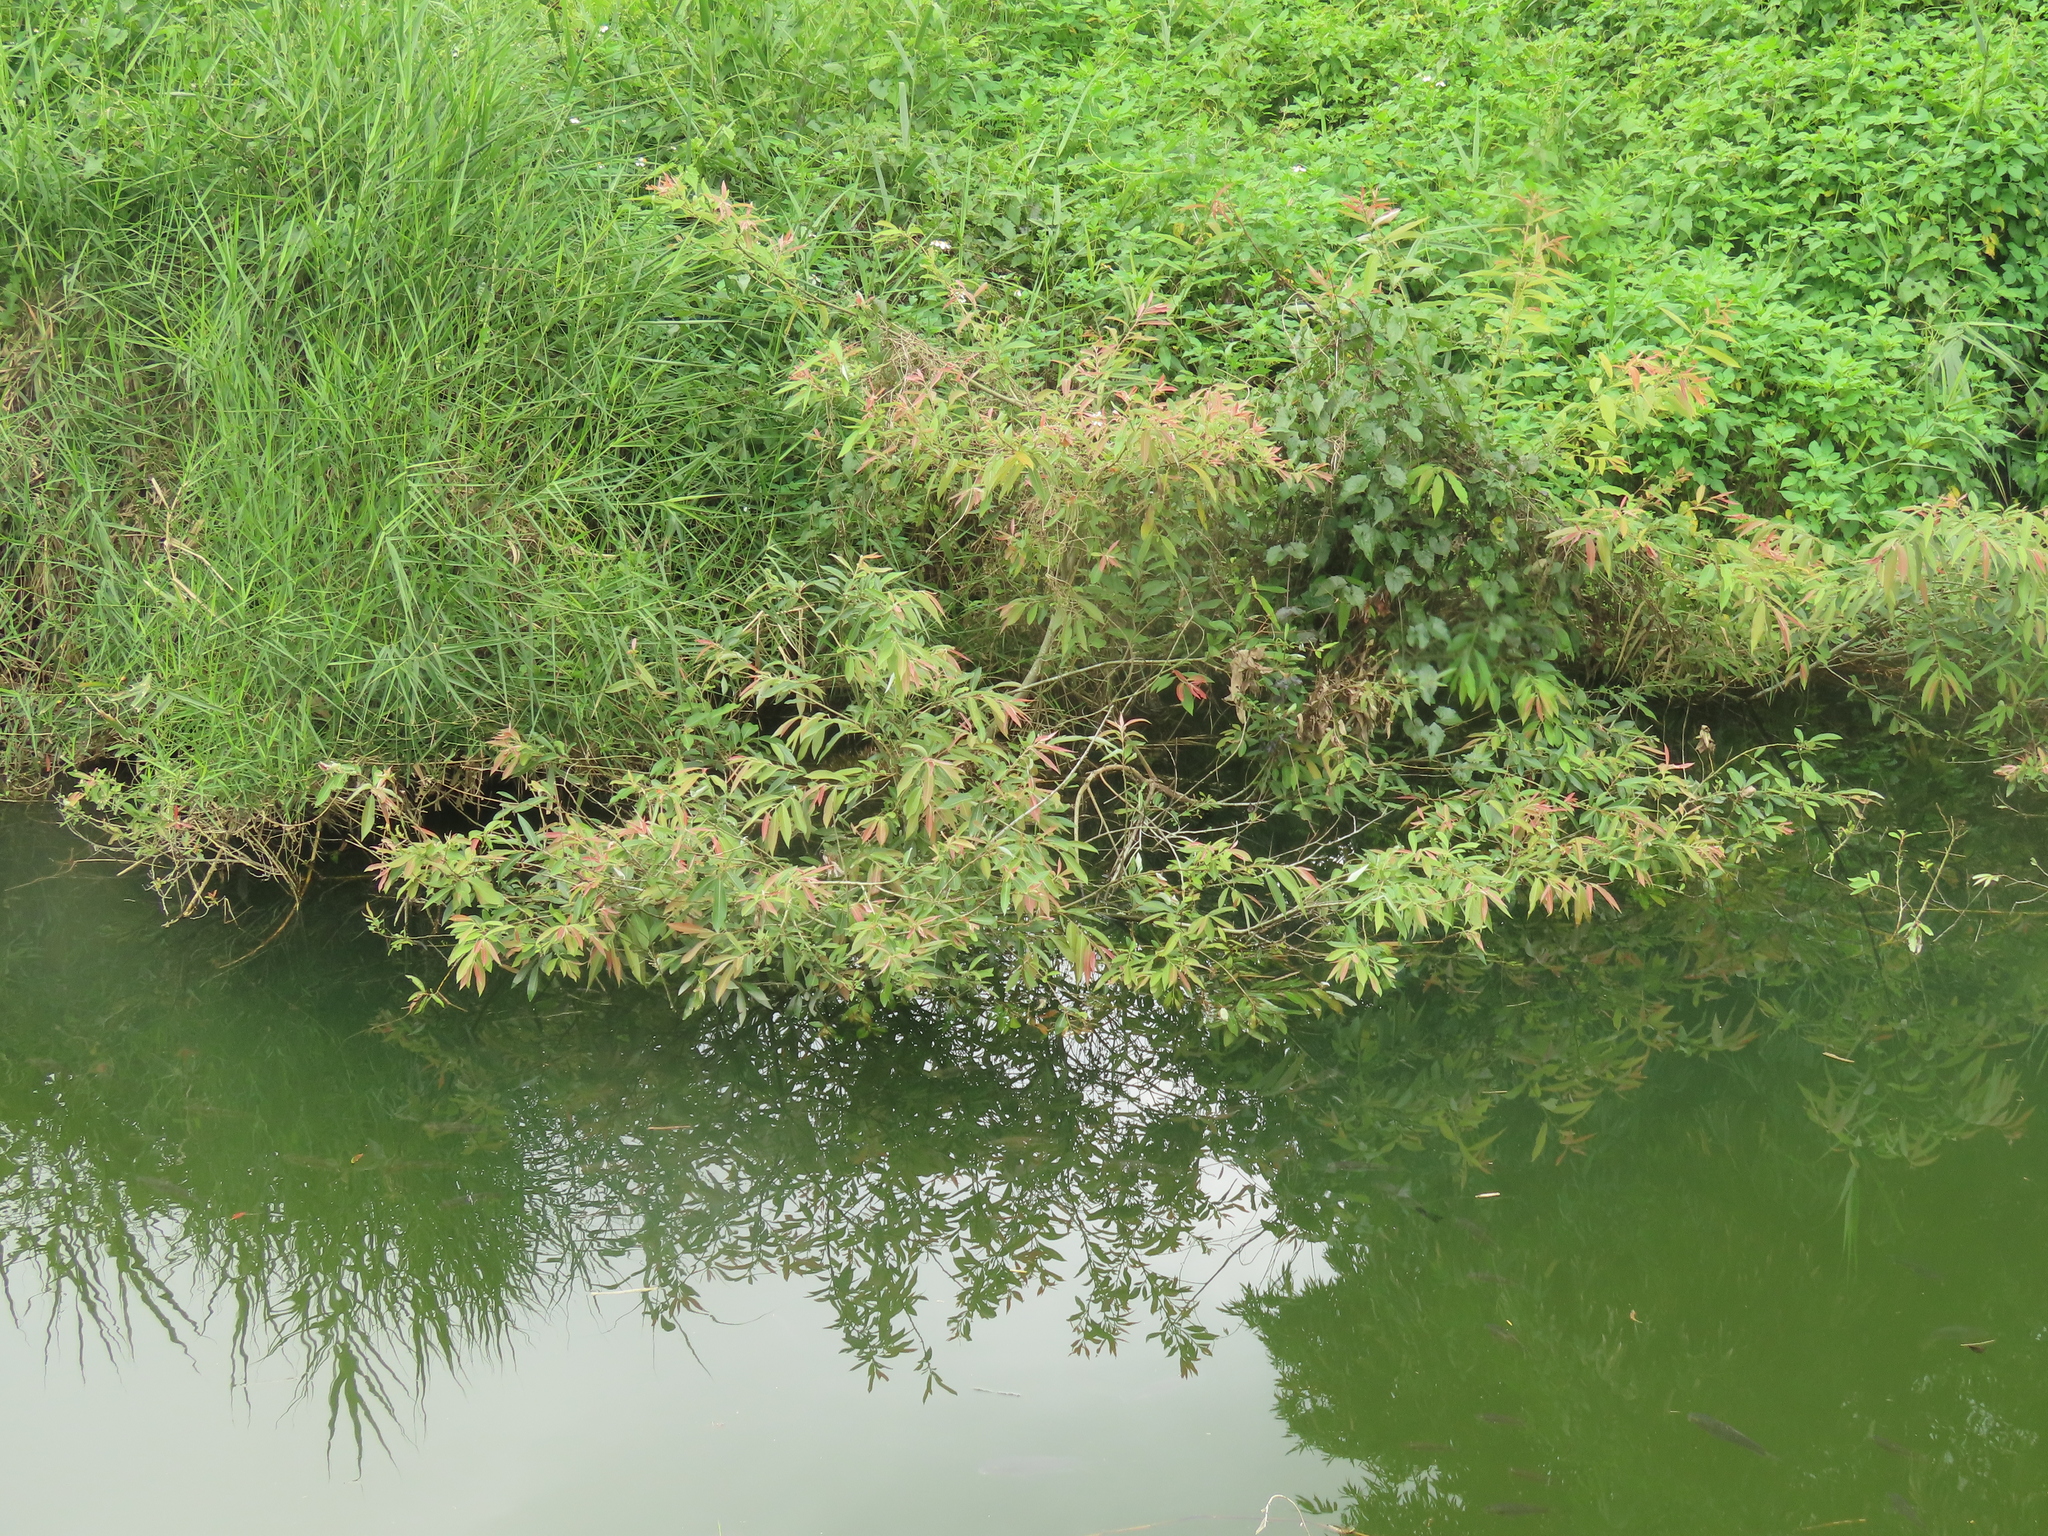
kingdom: Plantae
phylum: Tracheophyta
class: Magnoliopsida
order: Malpighiales
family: Salicaceae
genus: Salix
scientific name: Salix mesnyi
